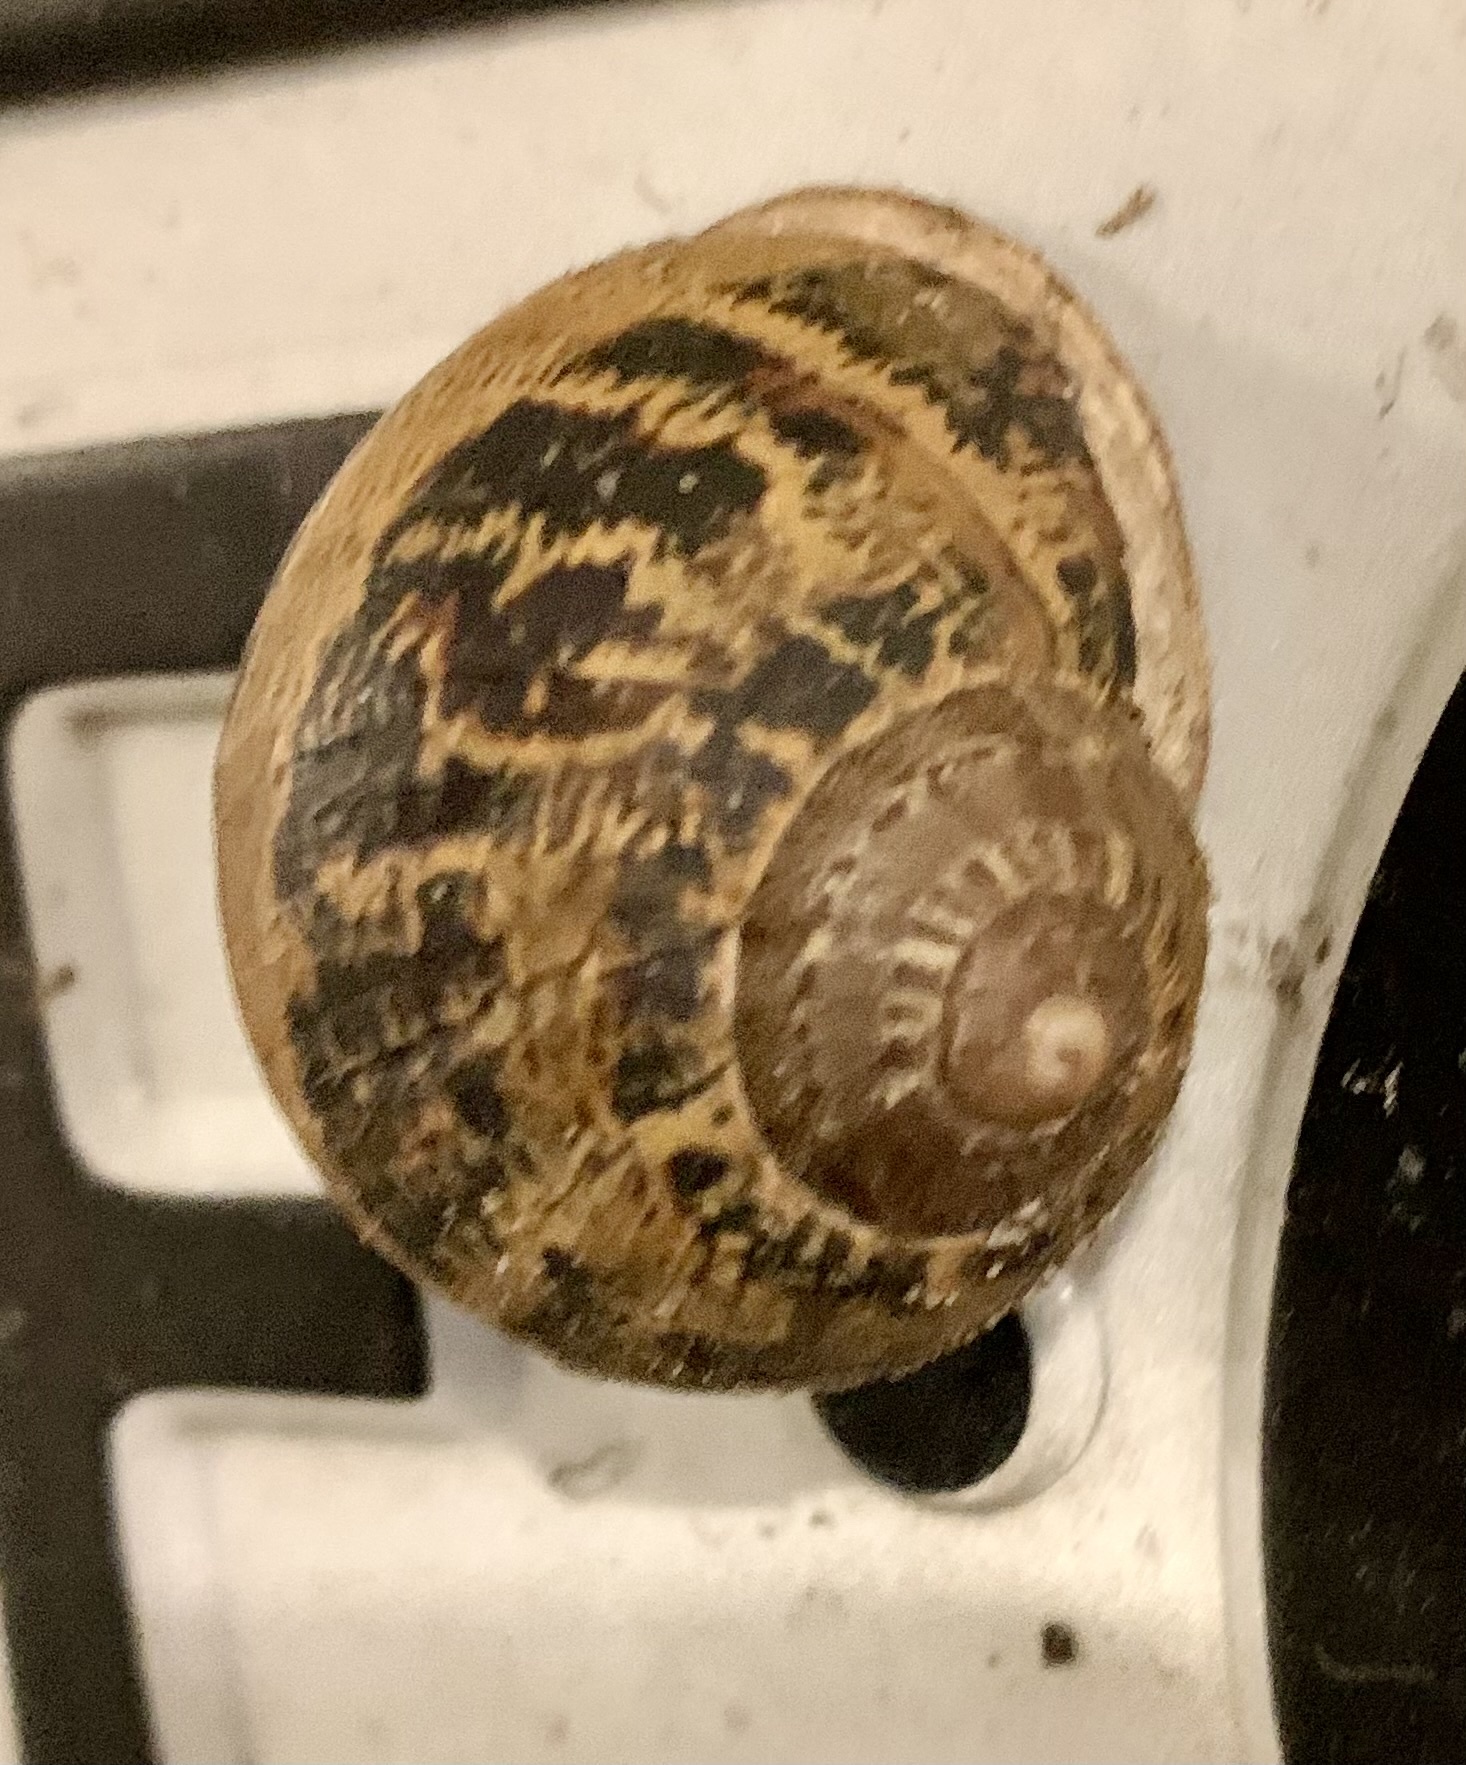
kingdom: Animalia
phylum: Mollusca
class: Gastropoda
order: Stylommatophora
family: Helicidae
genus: Cornu
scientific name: Cornu aspersum
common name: Brown garden snail
